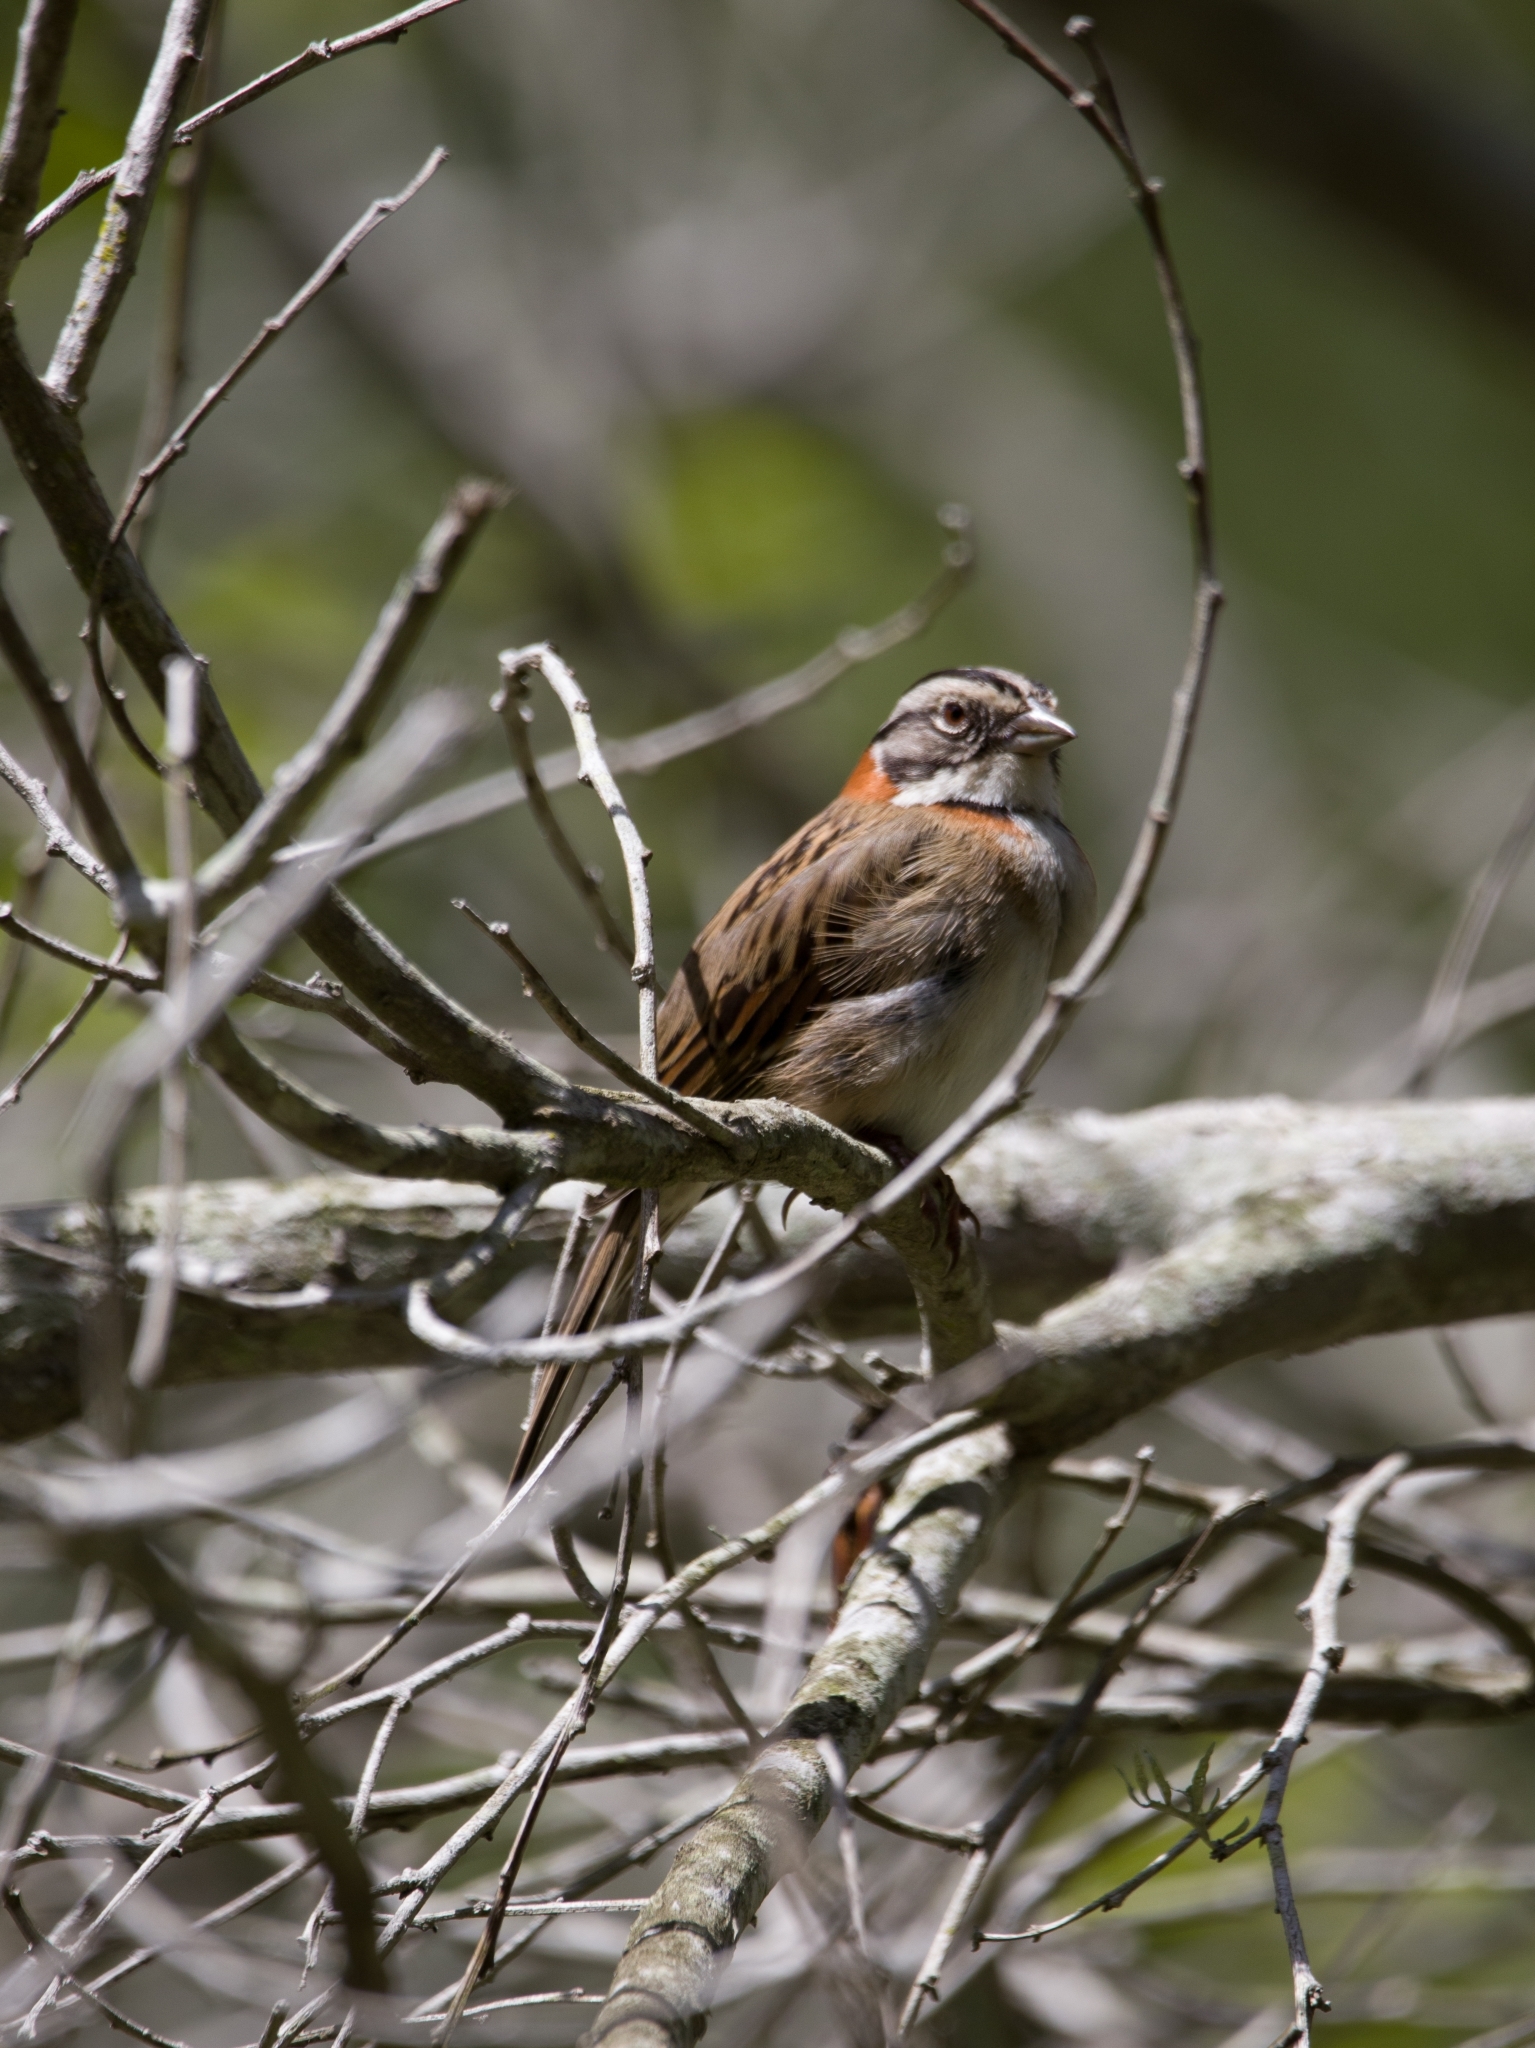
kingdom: Animalia
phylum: Chordata
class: Aves
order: Passeriformes
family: Passerellidae
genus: Zonotrichia
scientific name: Zonotrichia capensis
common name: Rufous-collared sparrow
